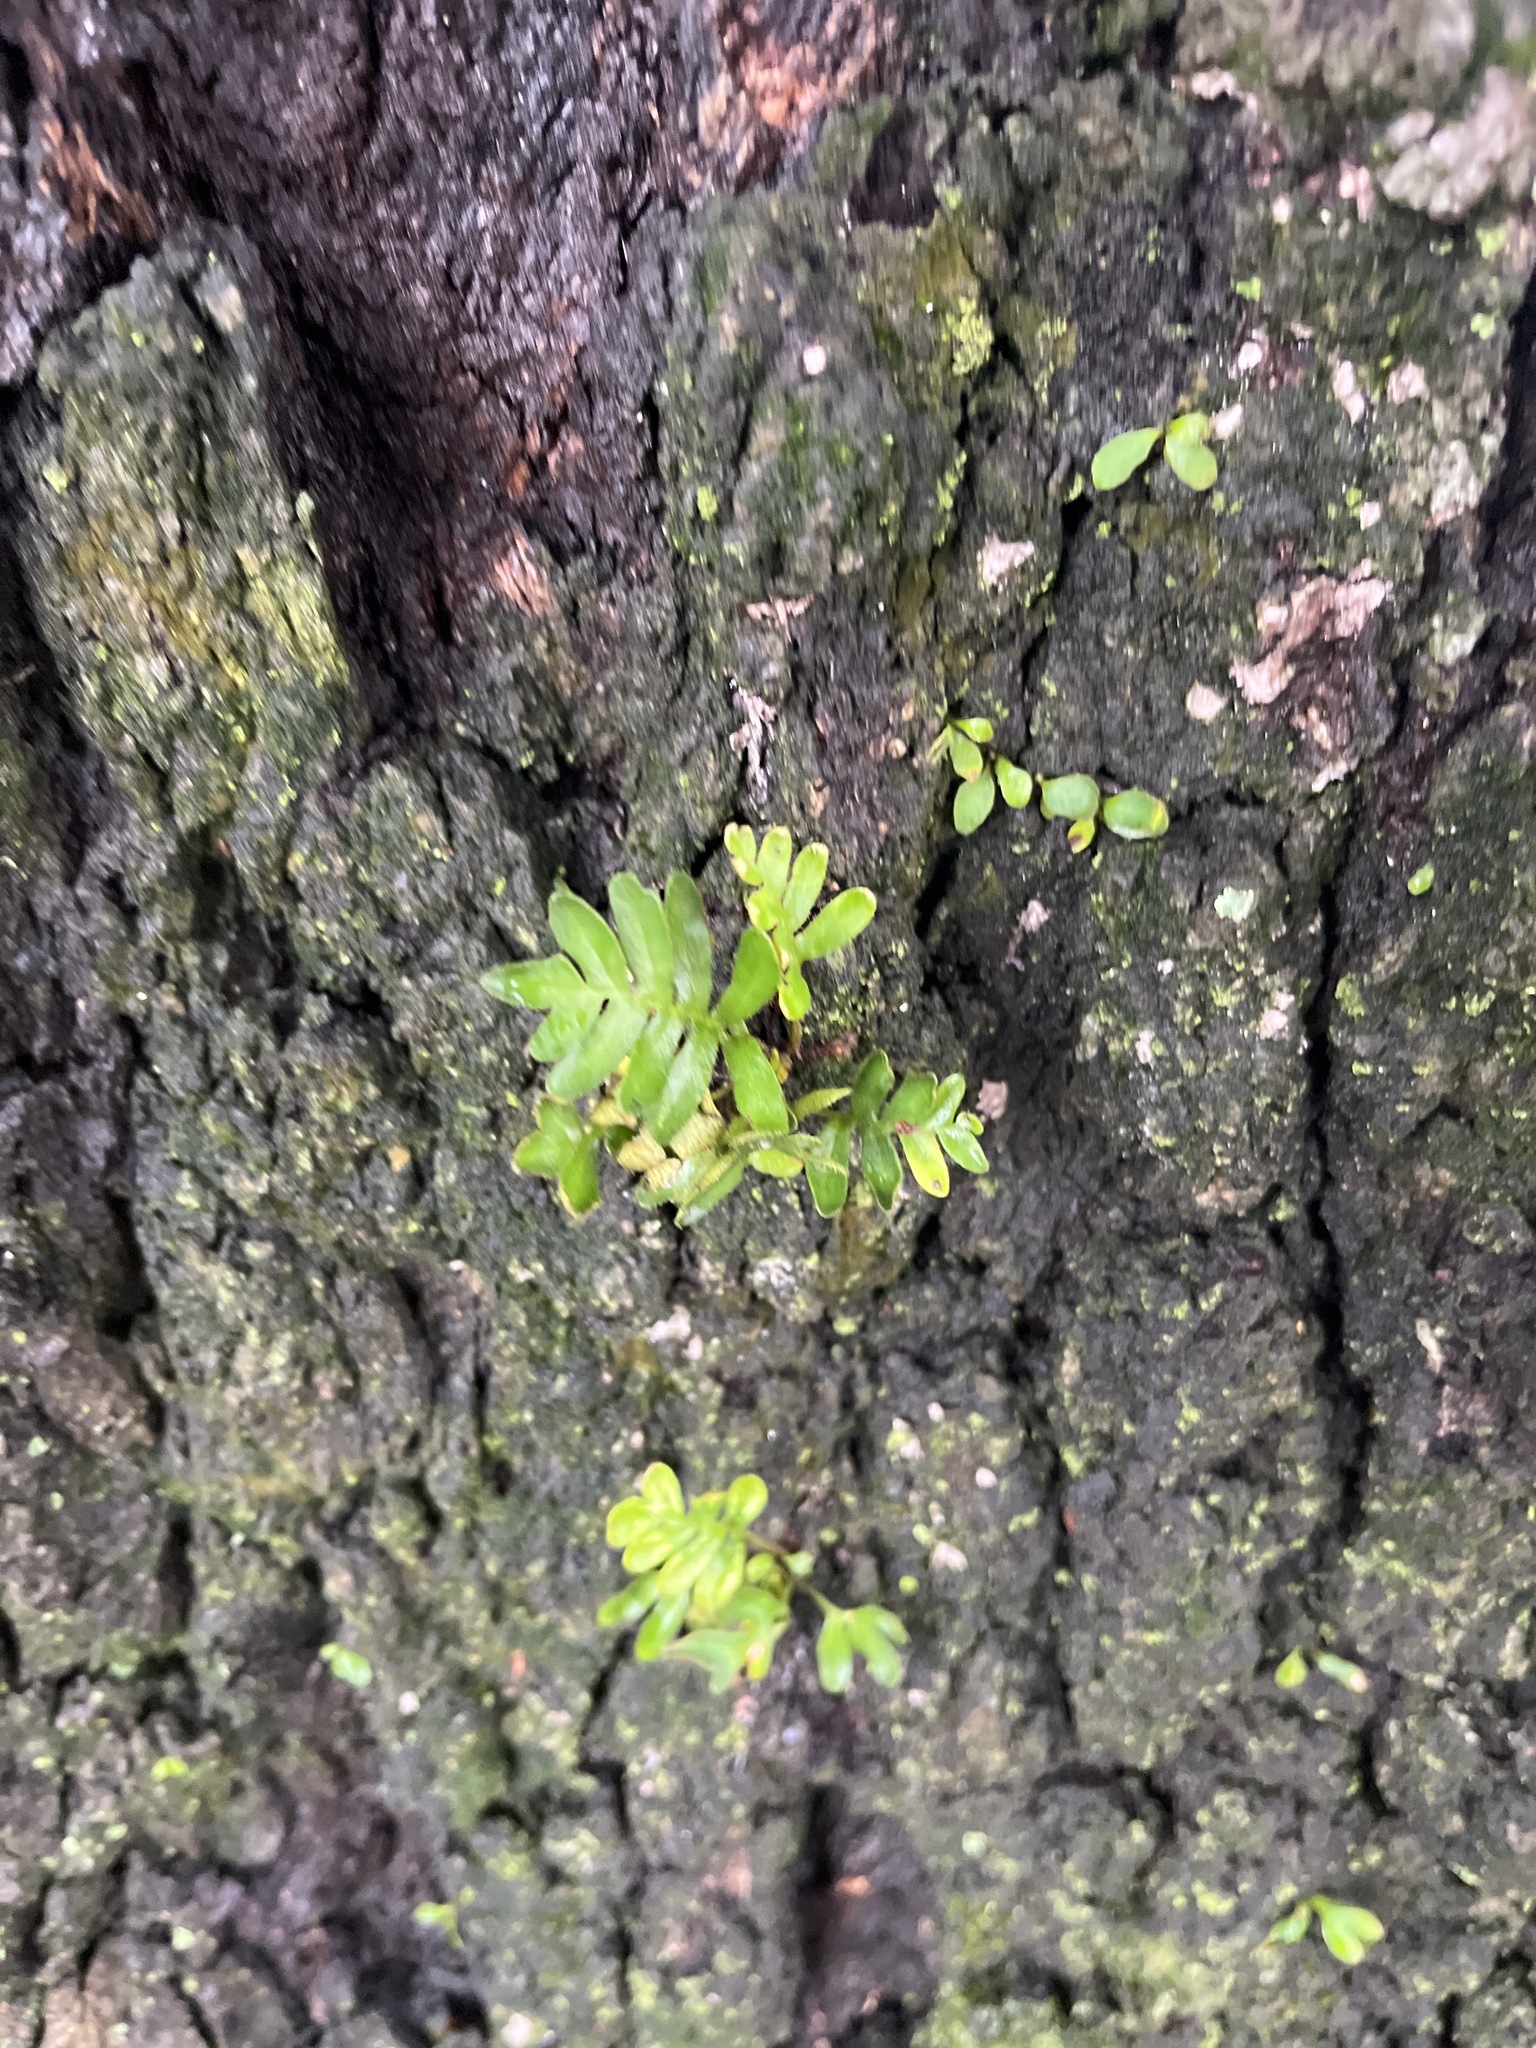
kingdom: Plantae
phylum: Tracheophyta
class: Polypodiopsida
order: Polypodiales
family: Polypodiaceae
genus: Pleopeltis
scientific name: Pleopeltis michauxiana
